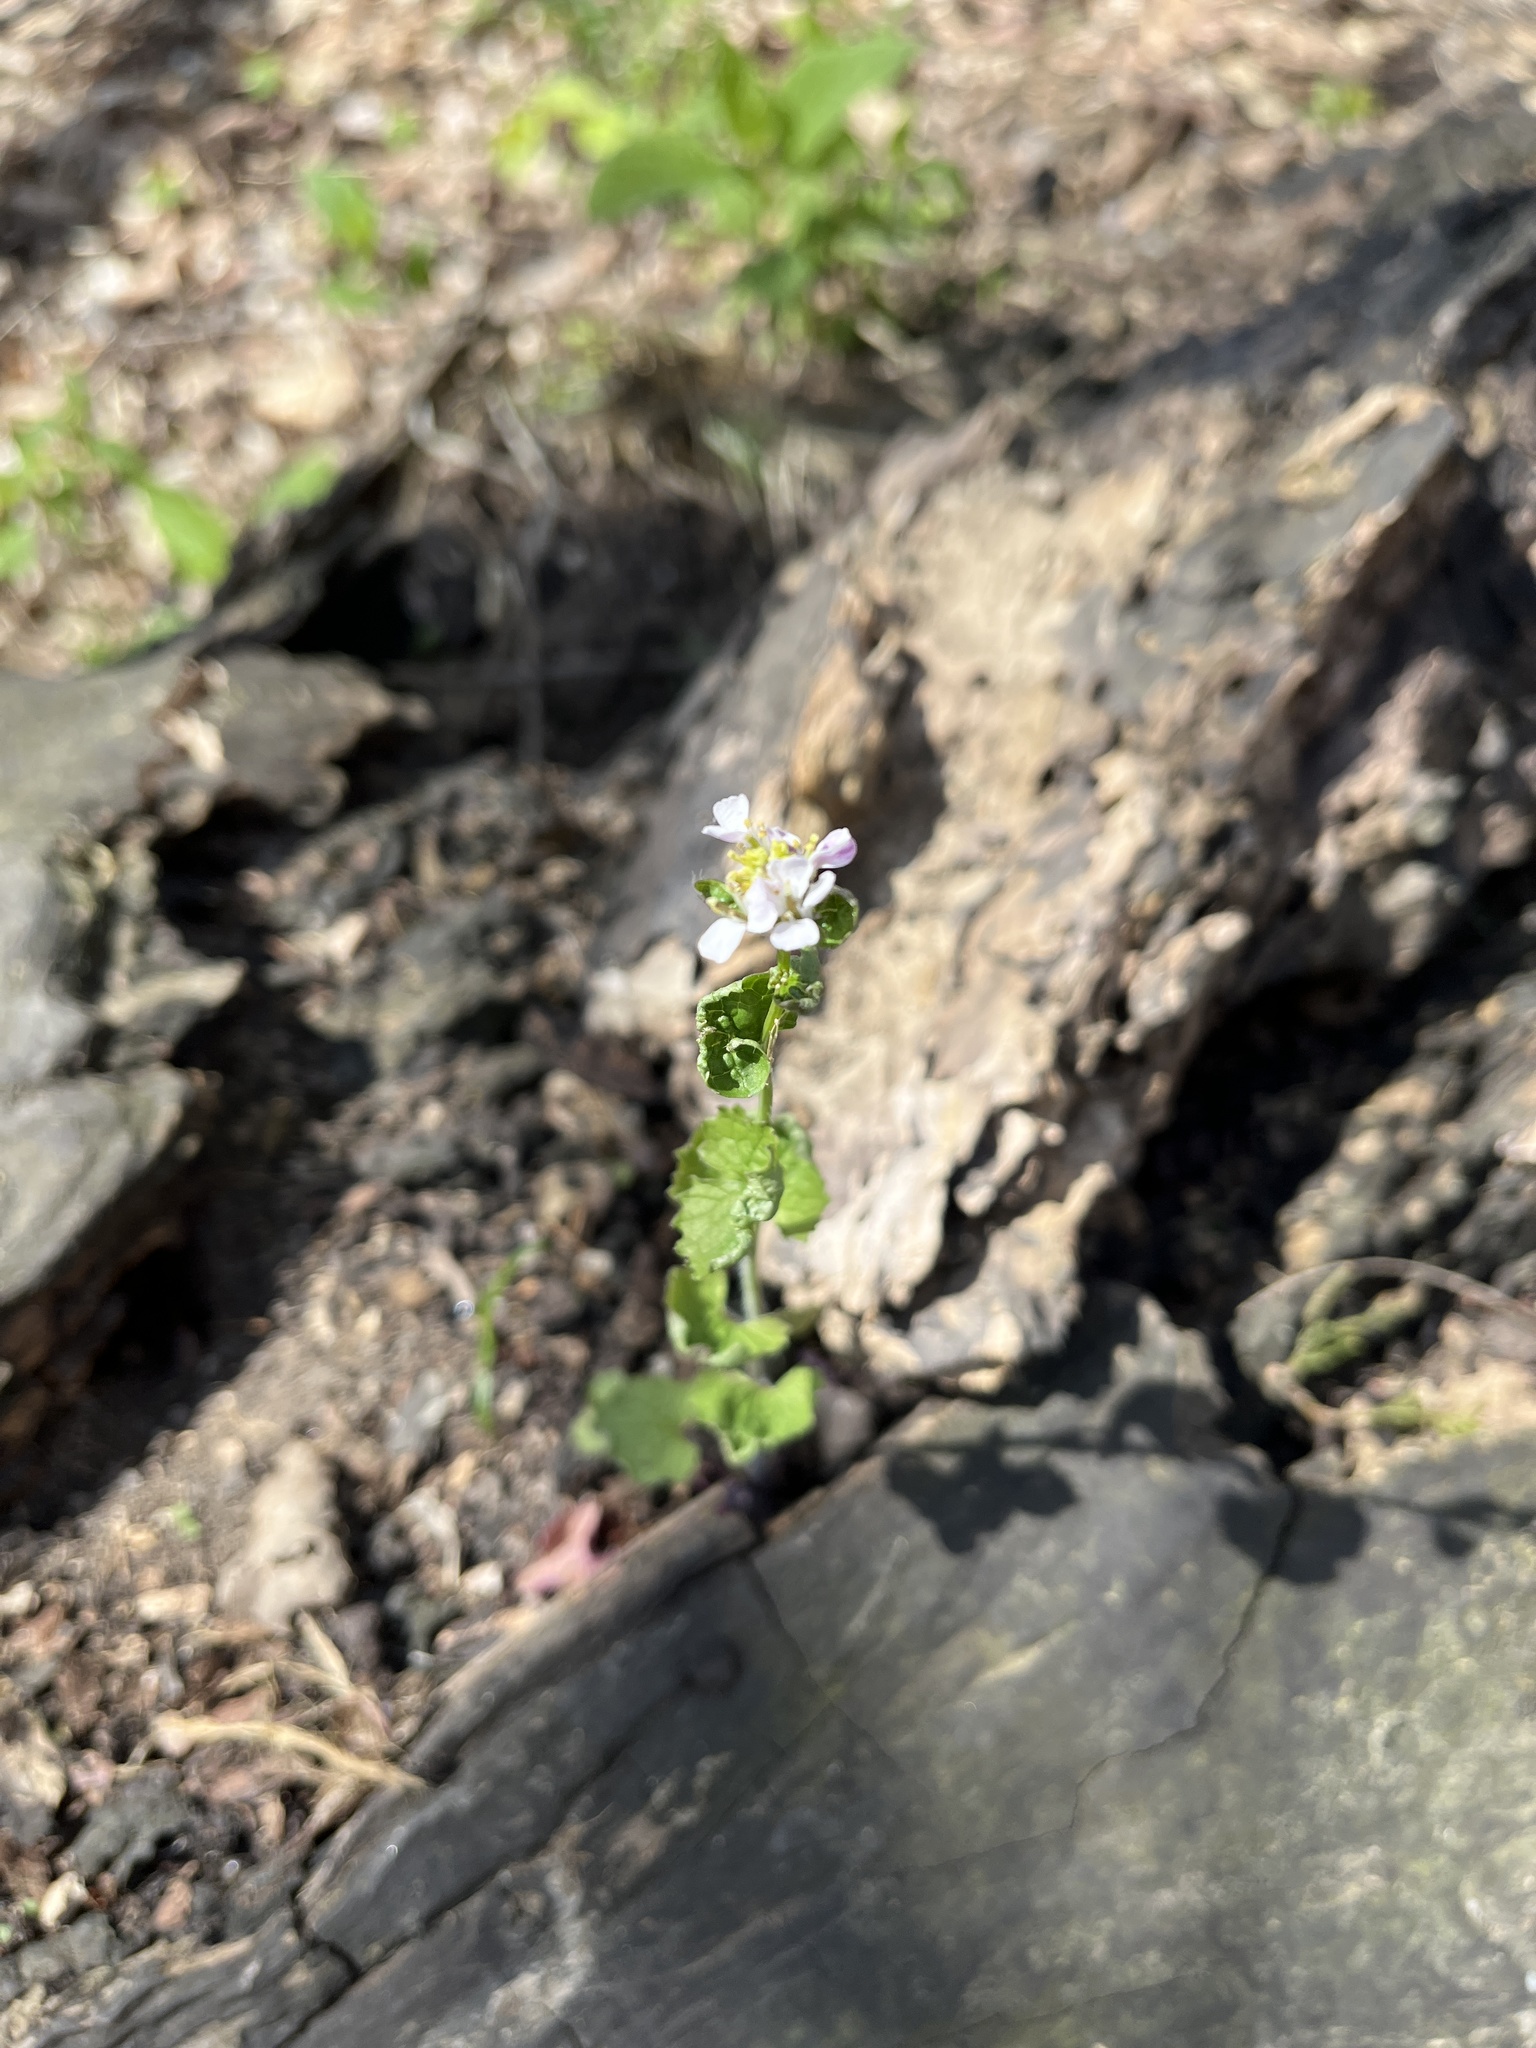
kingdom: Plantae
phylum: Tracheophyta
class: Magnoliopsida
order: Brassicales
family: Brassicaceae
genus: Alliaria
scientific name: Alliaria petiolata
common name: Garlic mustard
